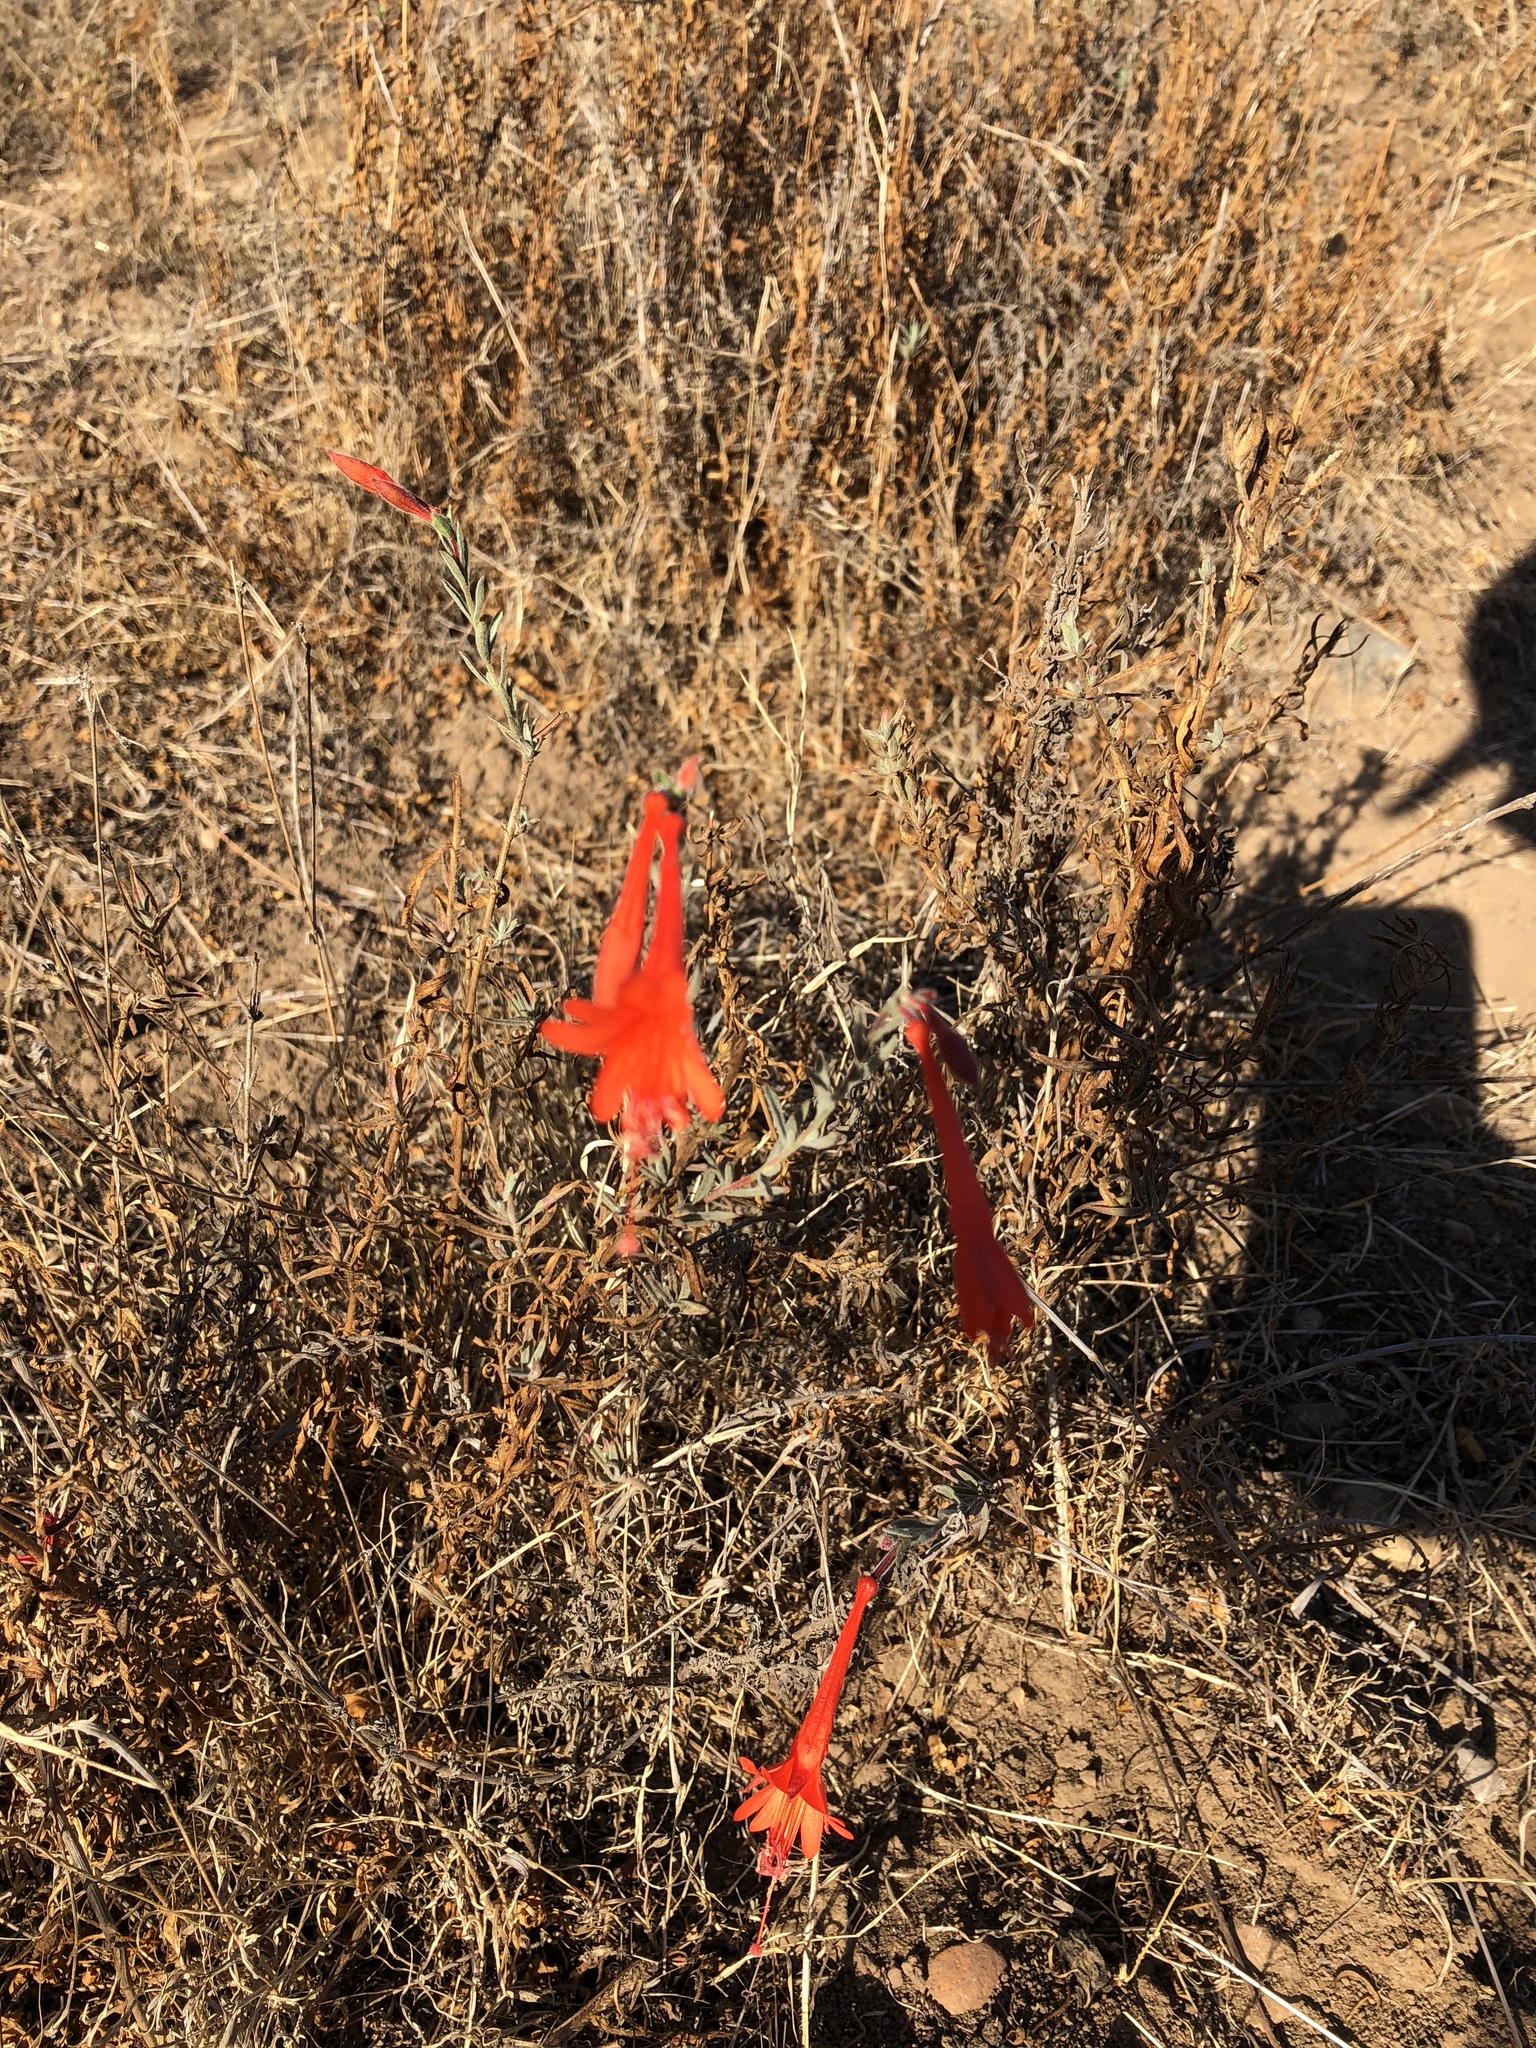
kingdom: Plantae
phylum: Tracheophyta
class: Magnoliopsida
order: Myrtales
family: Onagraceae
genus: Epilobium
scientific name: Epilobium canum
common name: California-fuchsia
